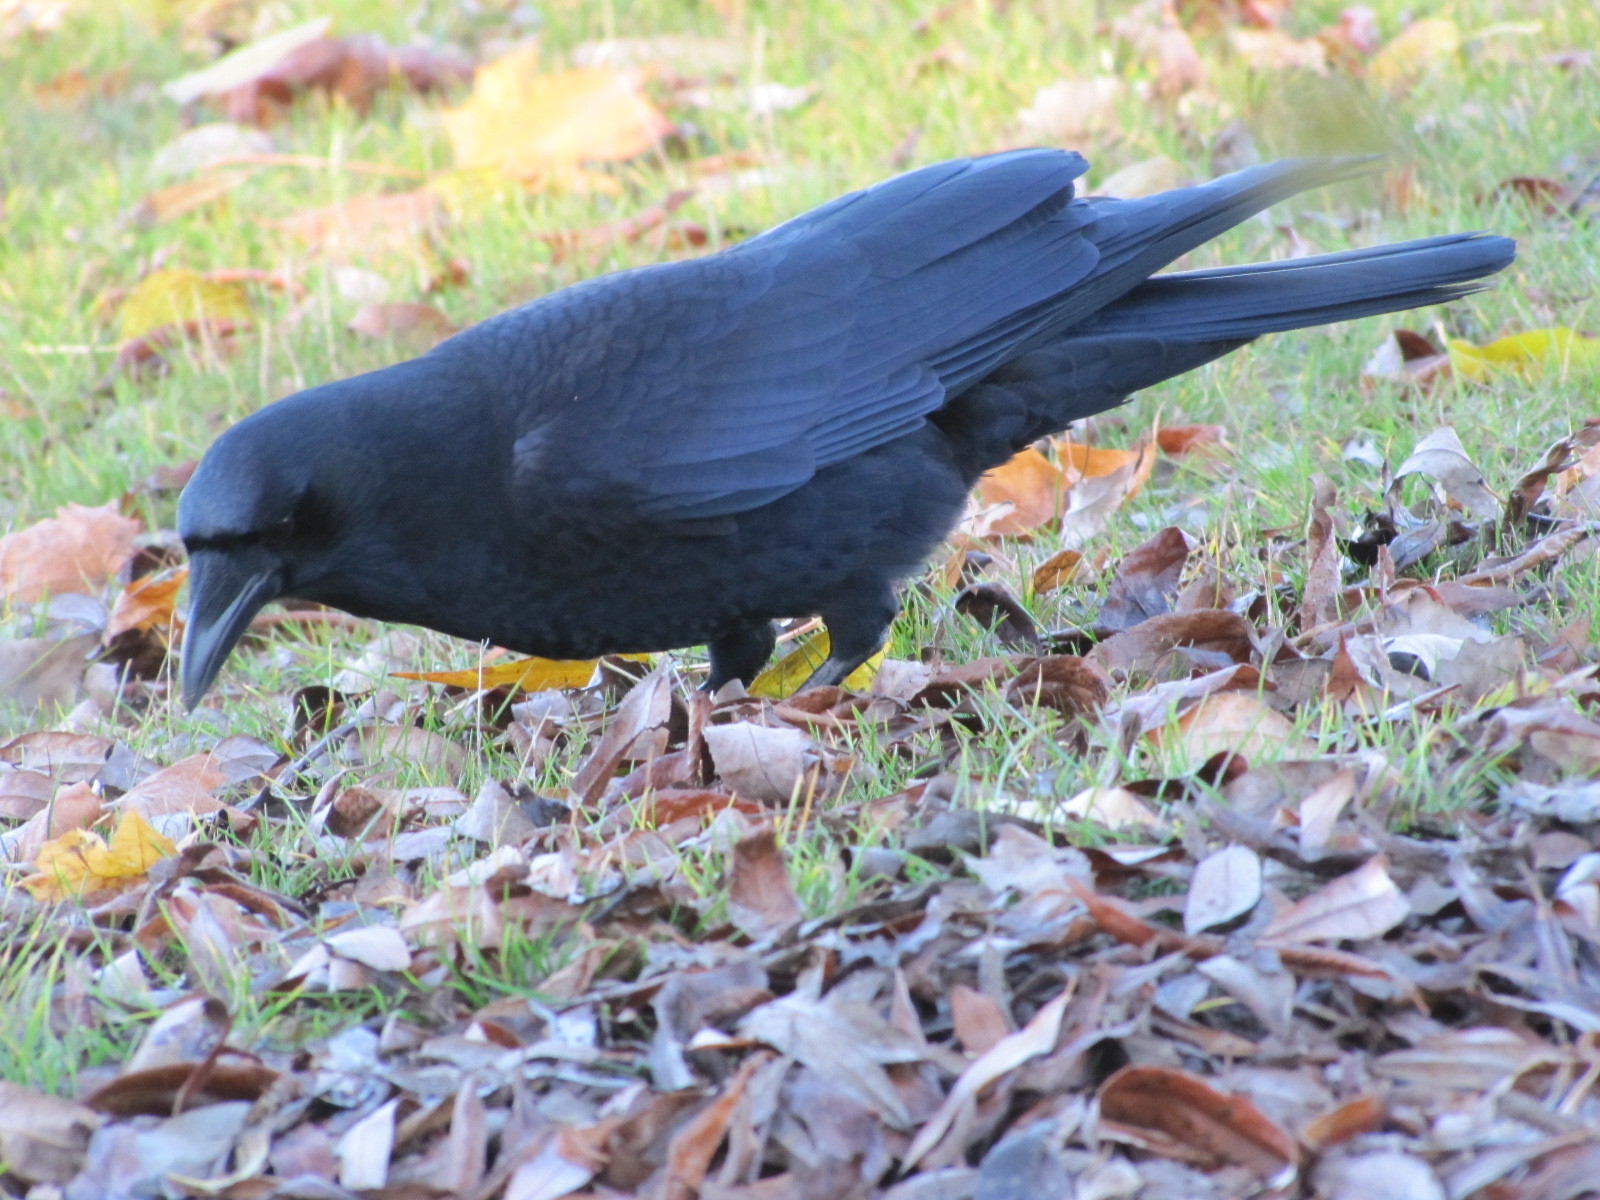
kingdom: Animalia
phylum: Chordata
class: Aves
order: Passeriformes
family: Corvidae
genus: Corvus
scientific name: Corvus brachyrhynchos
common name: American crow
